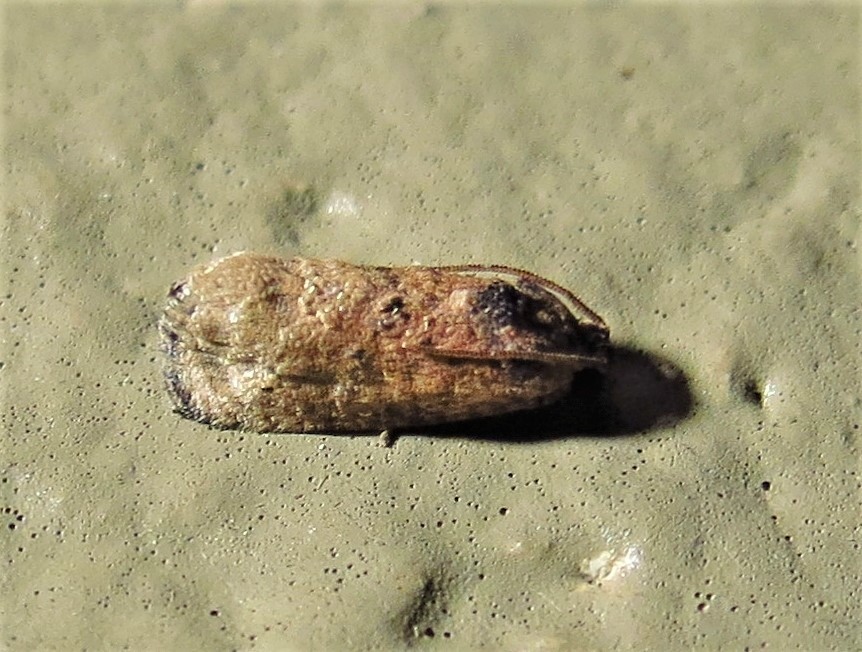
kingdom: Animalia
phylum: Arthropoda
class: Insecta
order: Lepidoptera
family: Tortricidae
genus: Ecdytolopha
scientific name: Ecdytolopha mana
